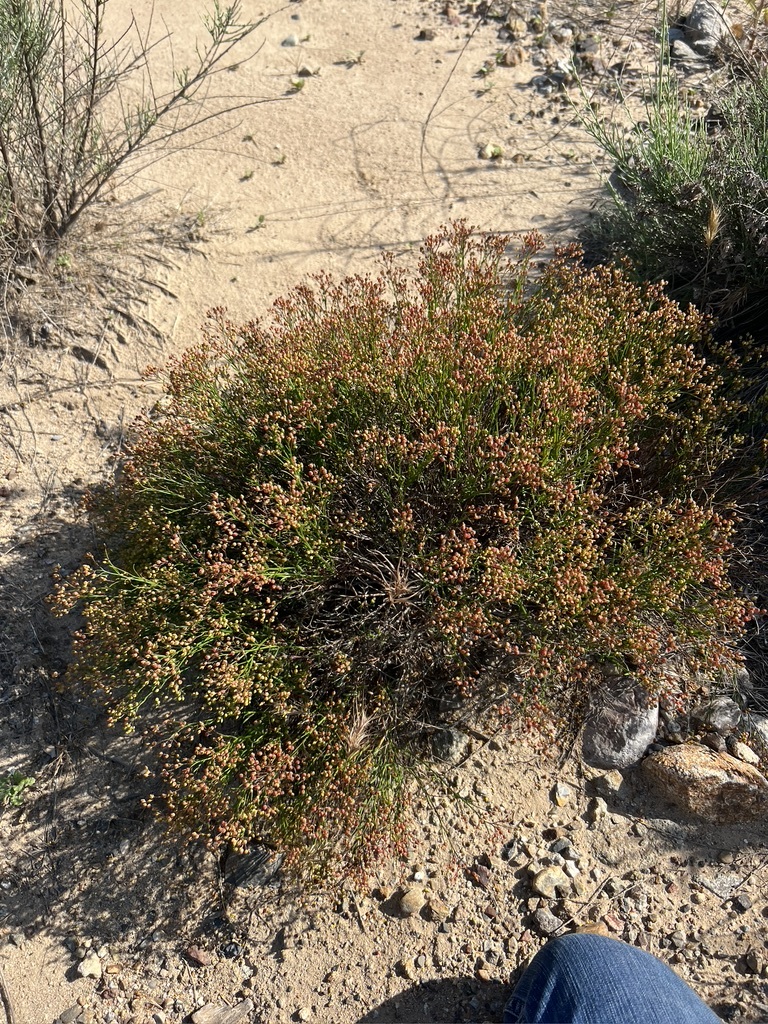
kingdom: Plantae
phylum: Tracheophyta
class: Magnoliopsida
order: Malvales
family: Cistaceae
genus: Crocanthemum
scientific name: Crocanthemum scoparium
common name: Broom-rose
